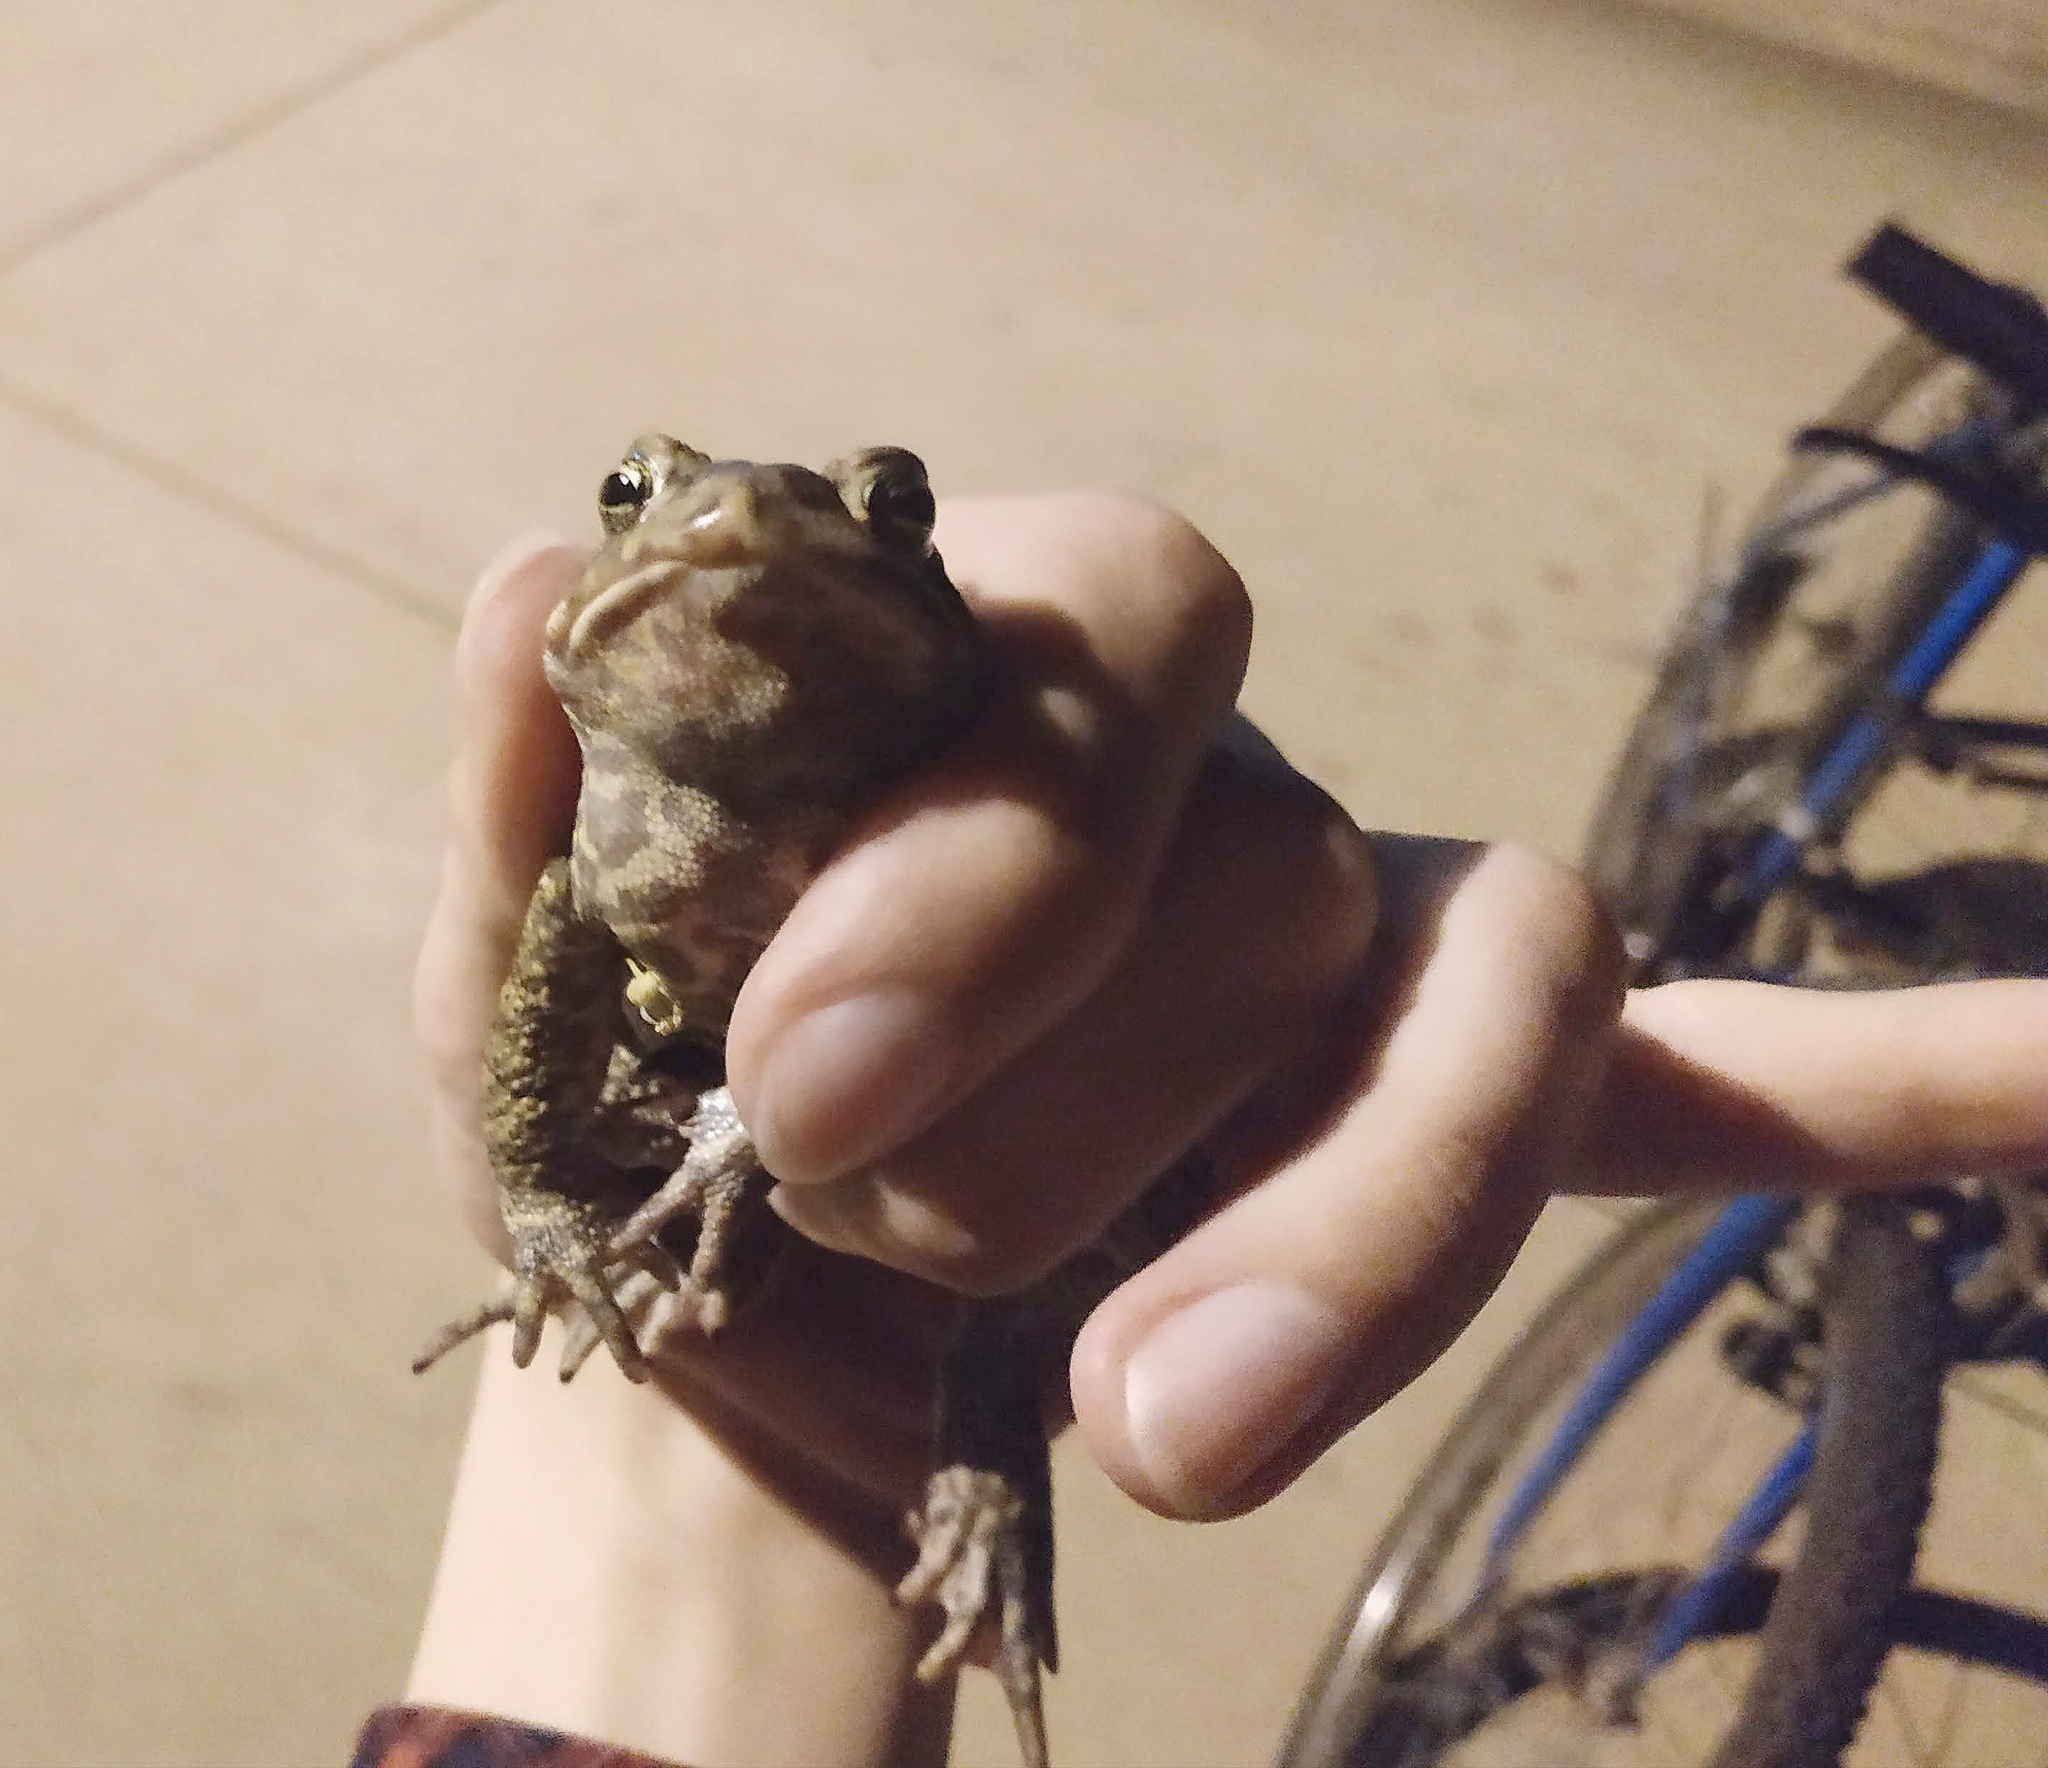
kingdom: Animalia
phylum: Chordata
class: Amphibia
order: Anura
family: Bufonidae
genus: Anaxyrus
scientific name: Anaxyrus americanus
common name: American toad
